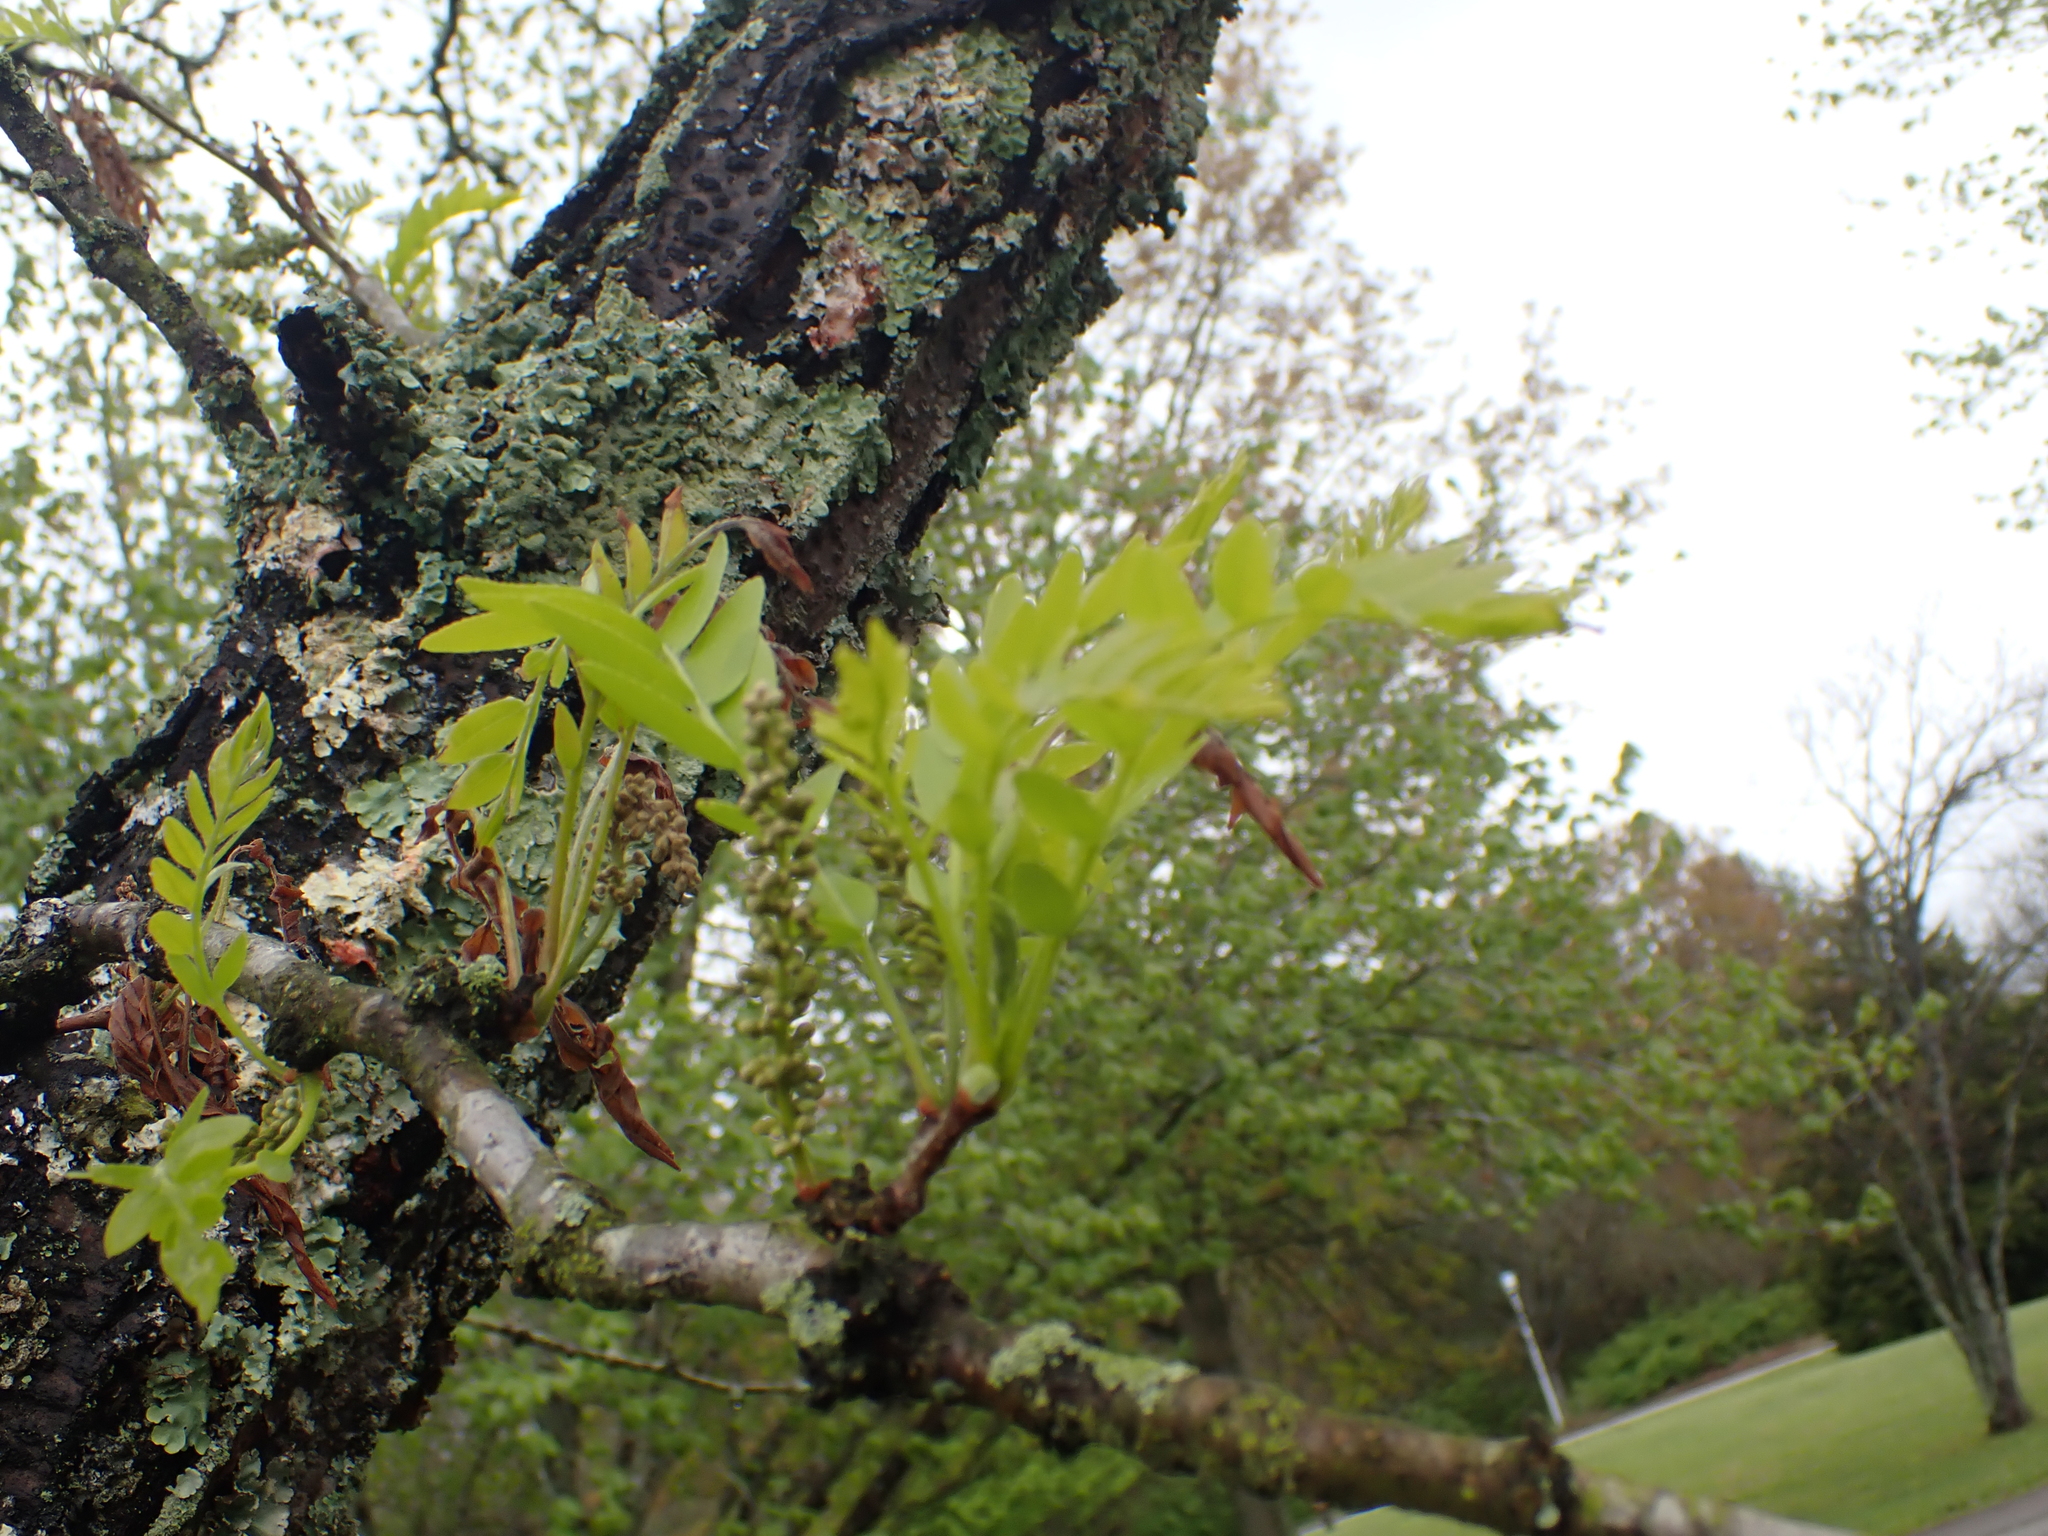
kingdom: Plantae
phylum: Tracheophyta
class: Magnoliopsida
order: Fabales
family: Fabaceae
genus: Gleditsia
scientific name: Gleditsia triacanthos
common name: Common honeylocust
